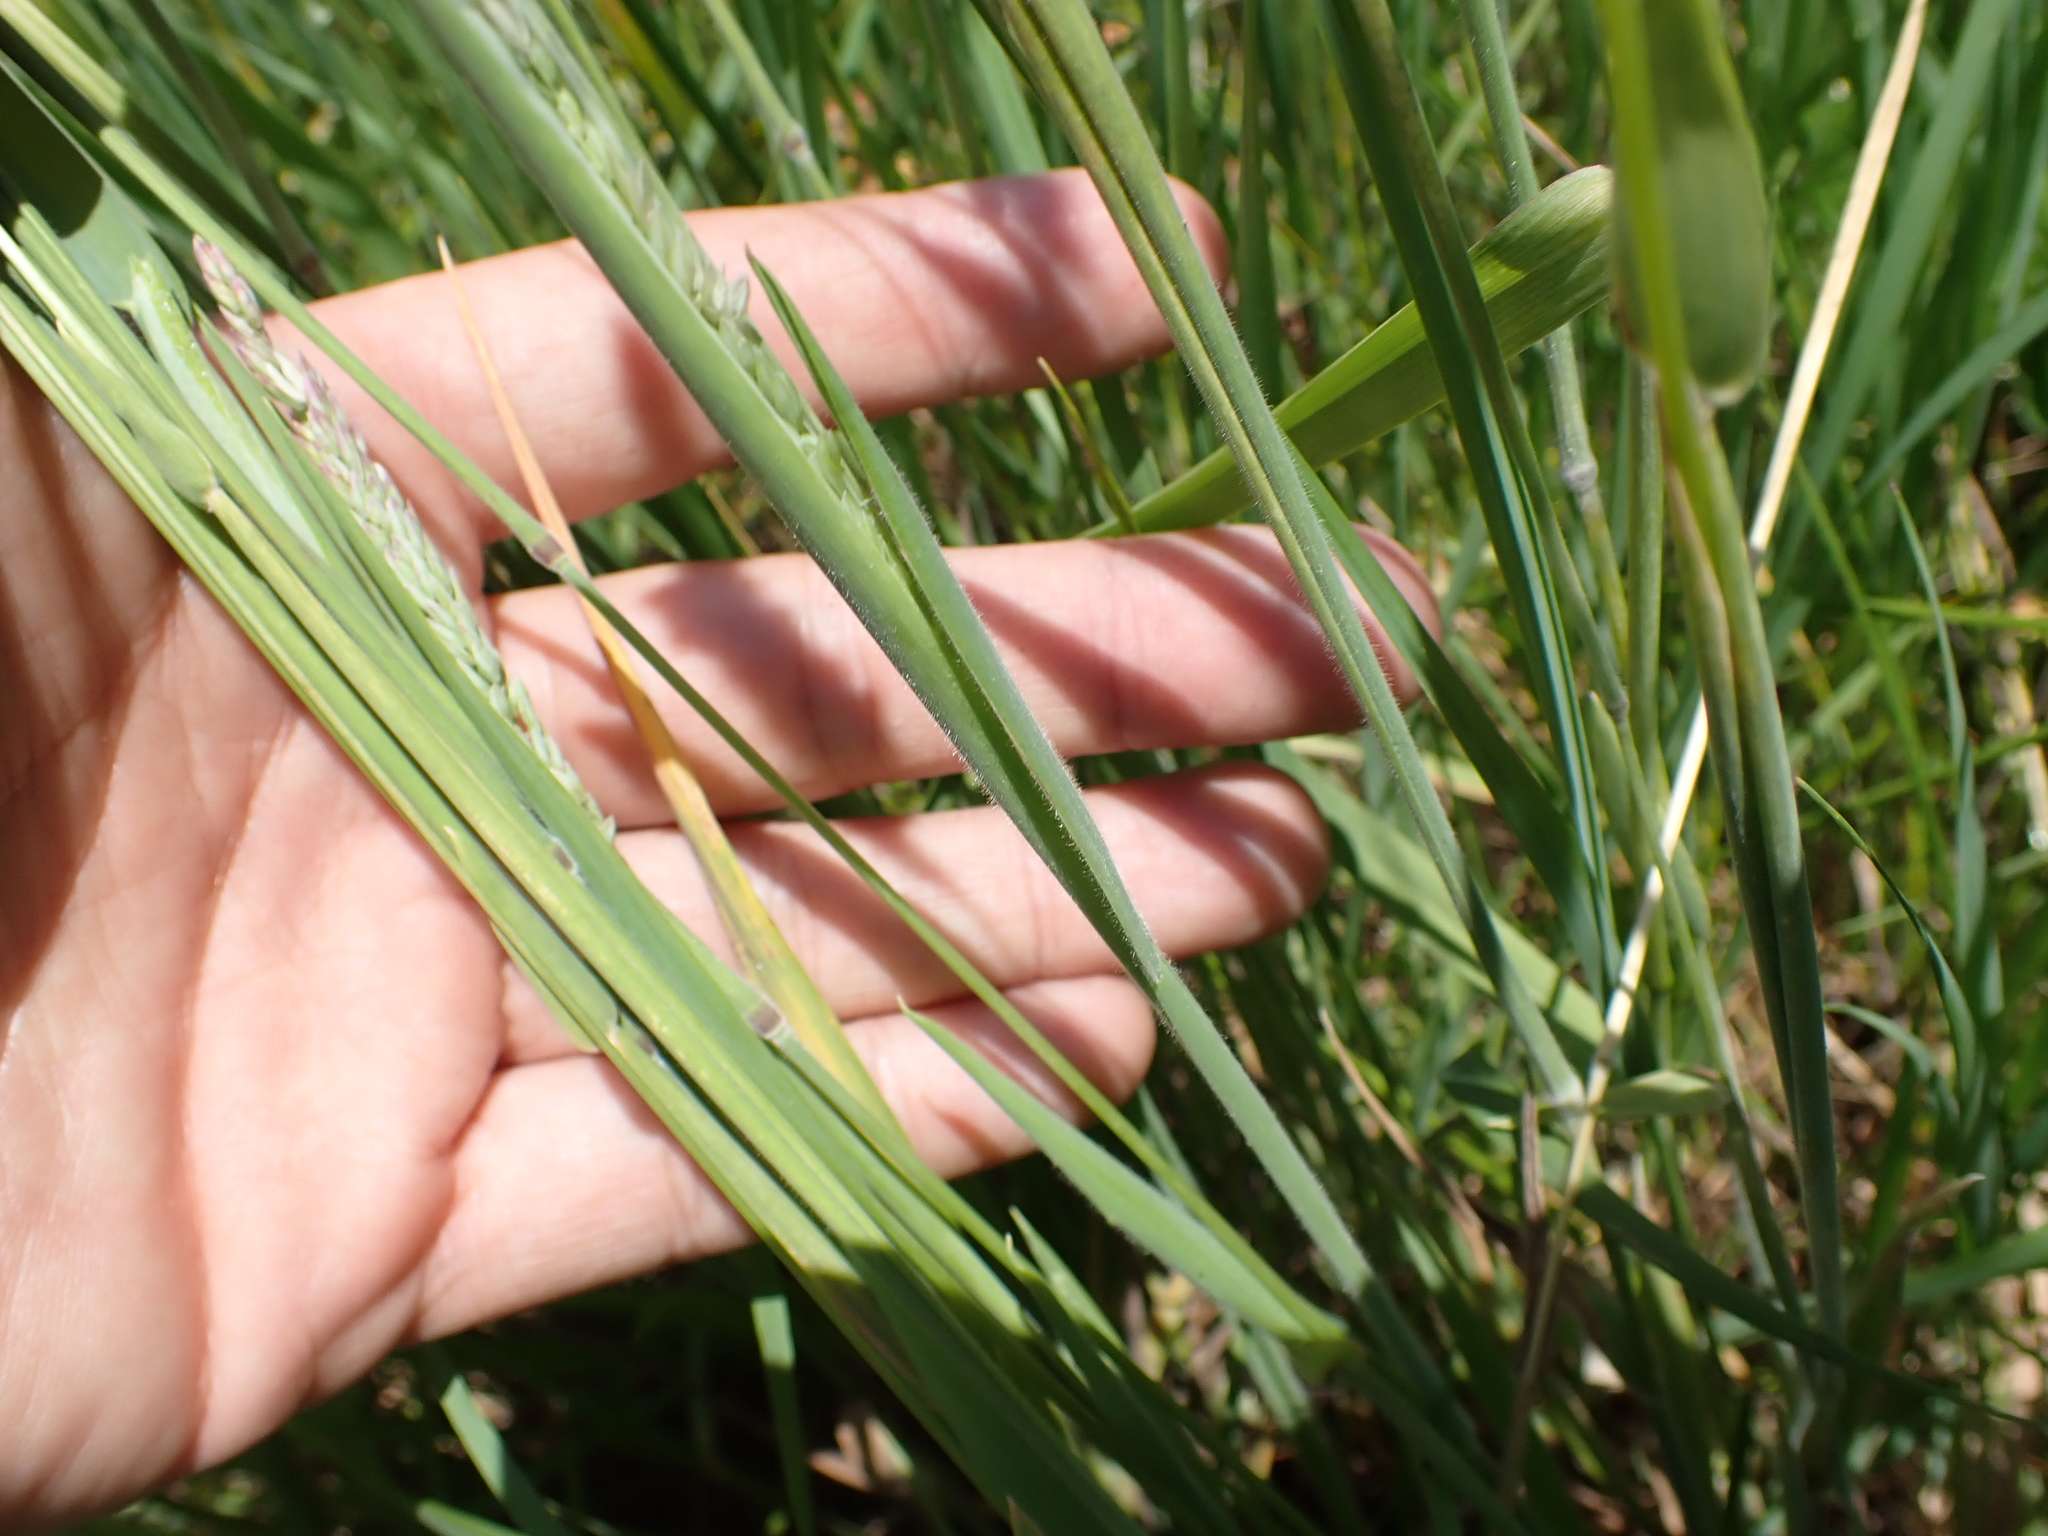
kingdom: Plantae
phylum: Tracheophyta
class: Liliopsida
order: Poales
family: Poaceae
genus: Holcus
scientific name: Holcus lanatus
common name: Yorkshire-fog
